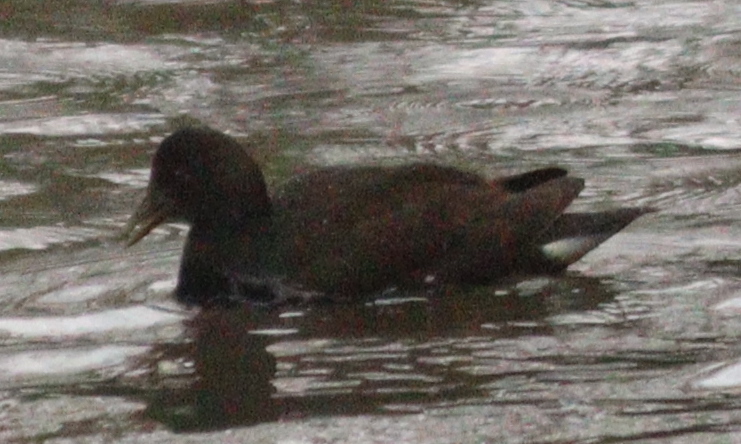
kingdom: Animalia
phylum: Chordata
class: Aves
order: Gruiformes
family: Rallidae
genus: Gallinula
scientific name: Gallinula chloropus
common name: Common moorhen
